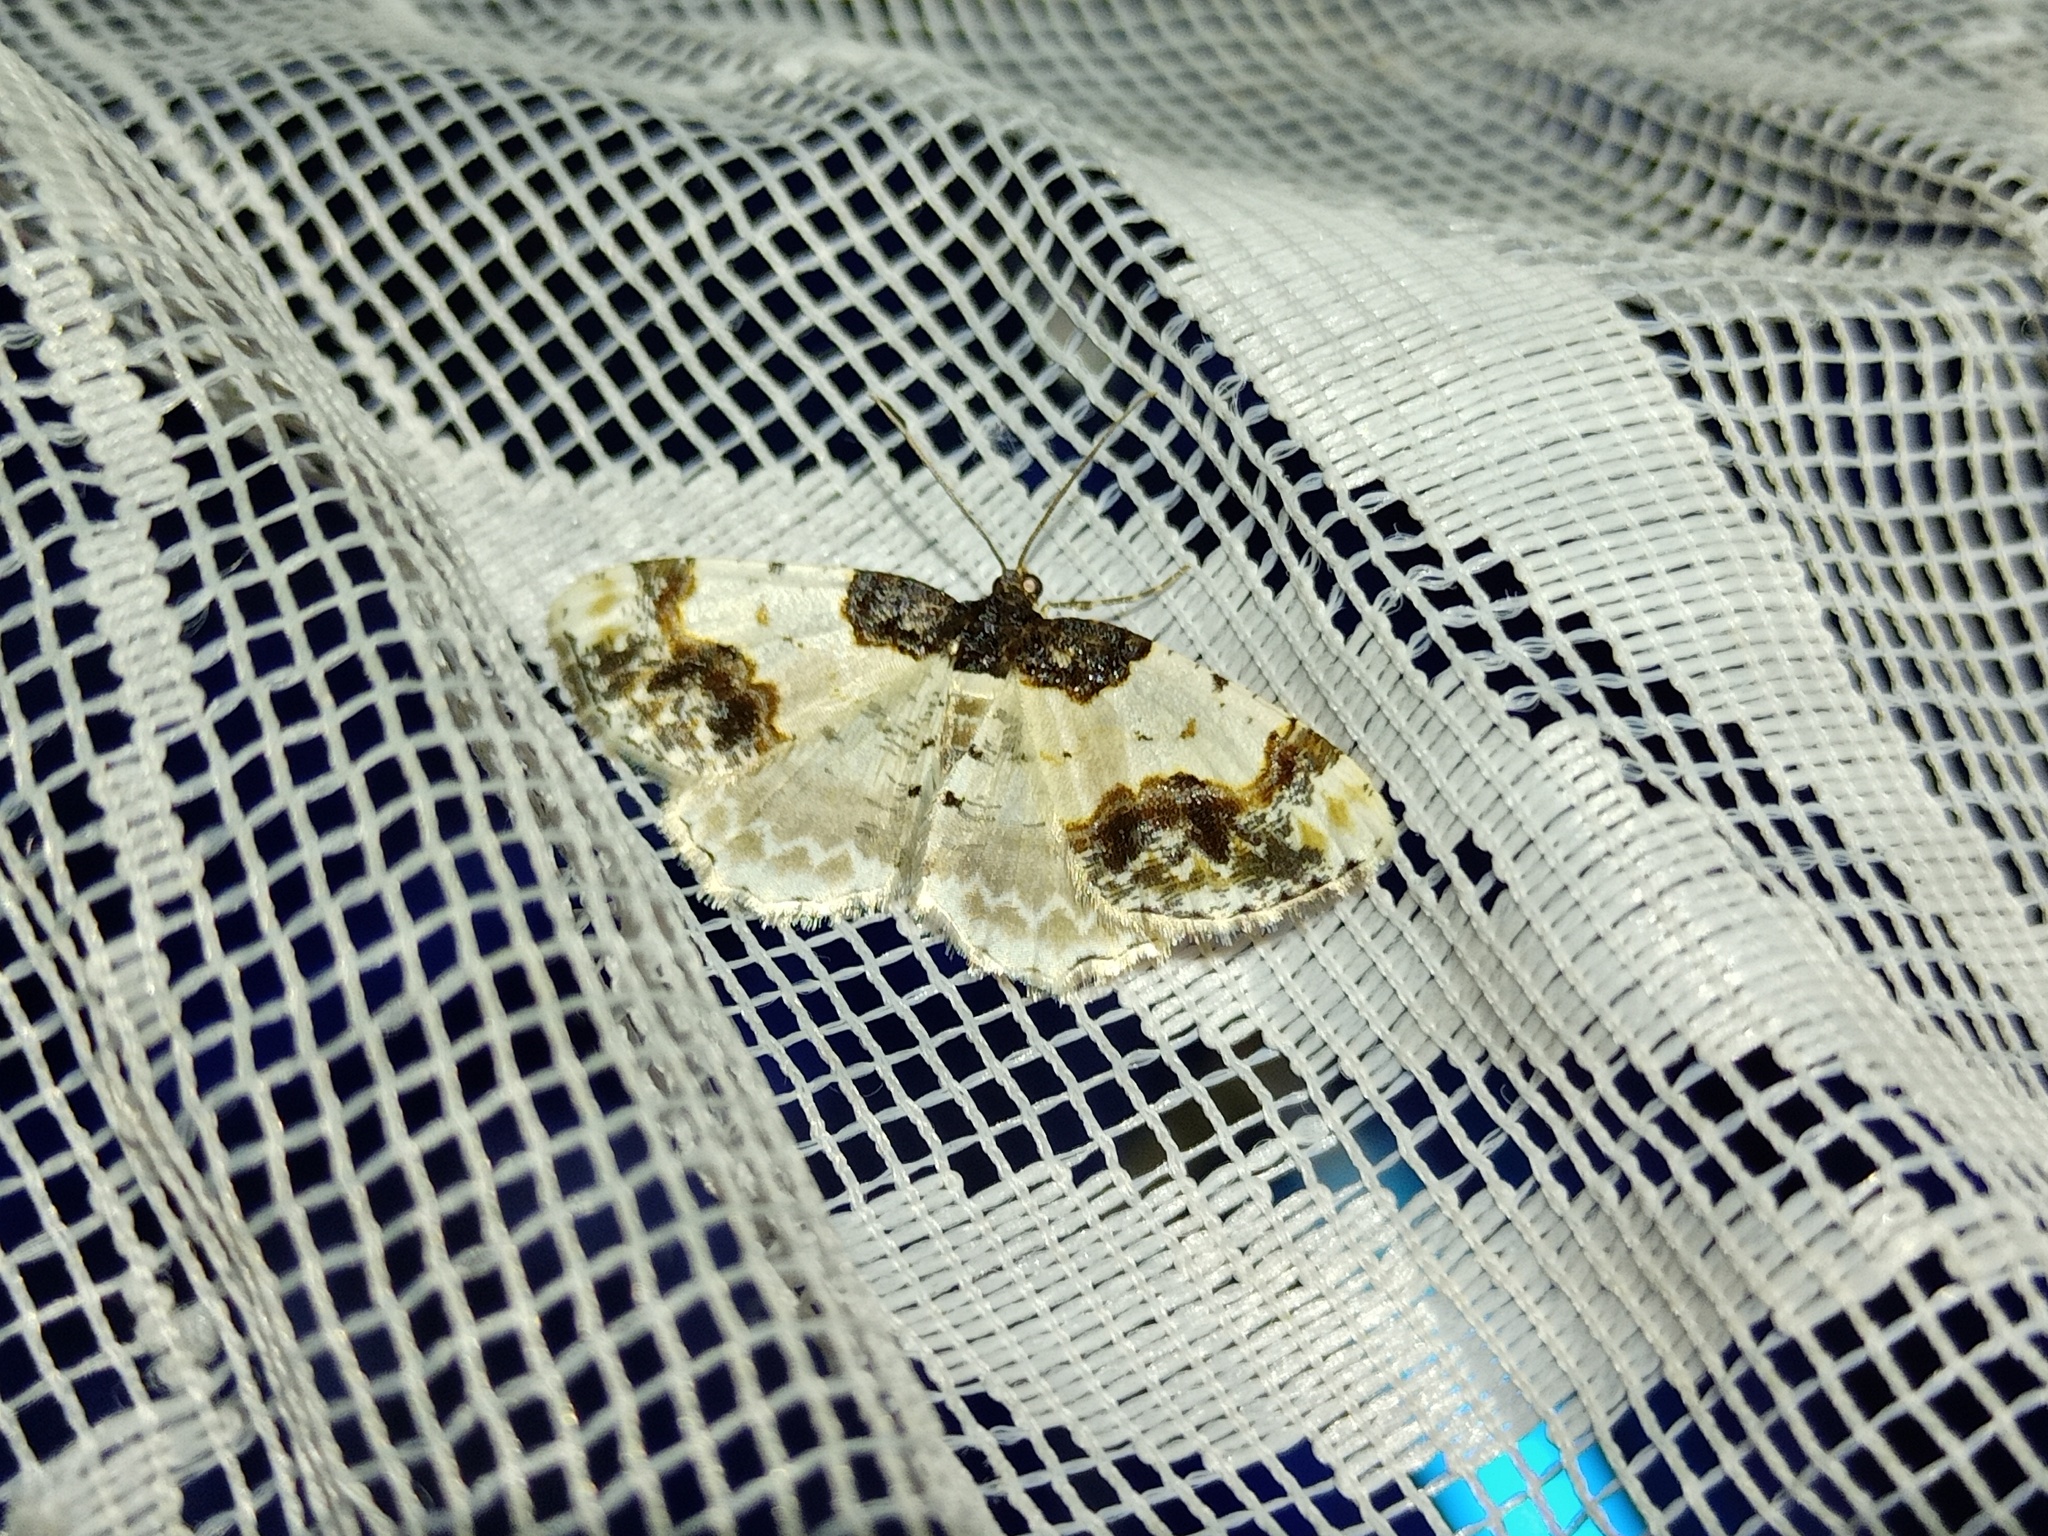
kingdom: Animalia
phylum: Arthropoda
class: Insecta
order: Lepidoptera
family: Geometridae
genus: Ligdia
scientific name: Ligdia adustata
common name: Scorched carpet
